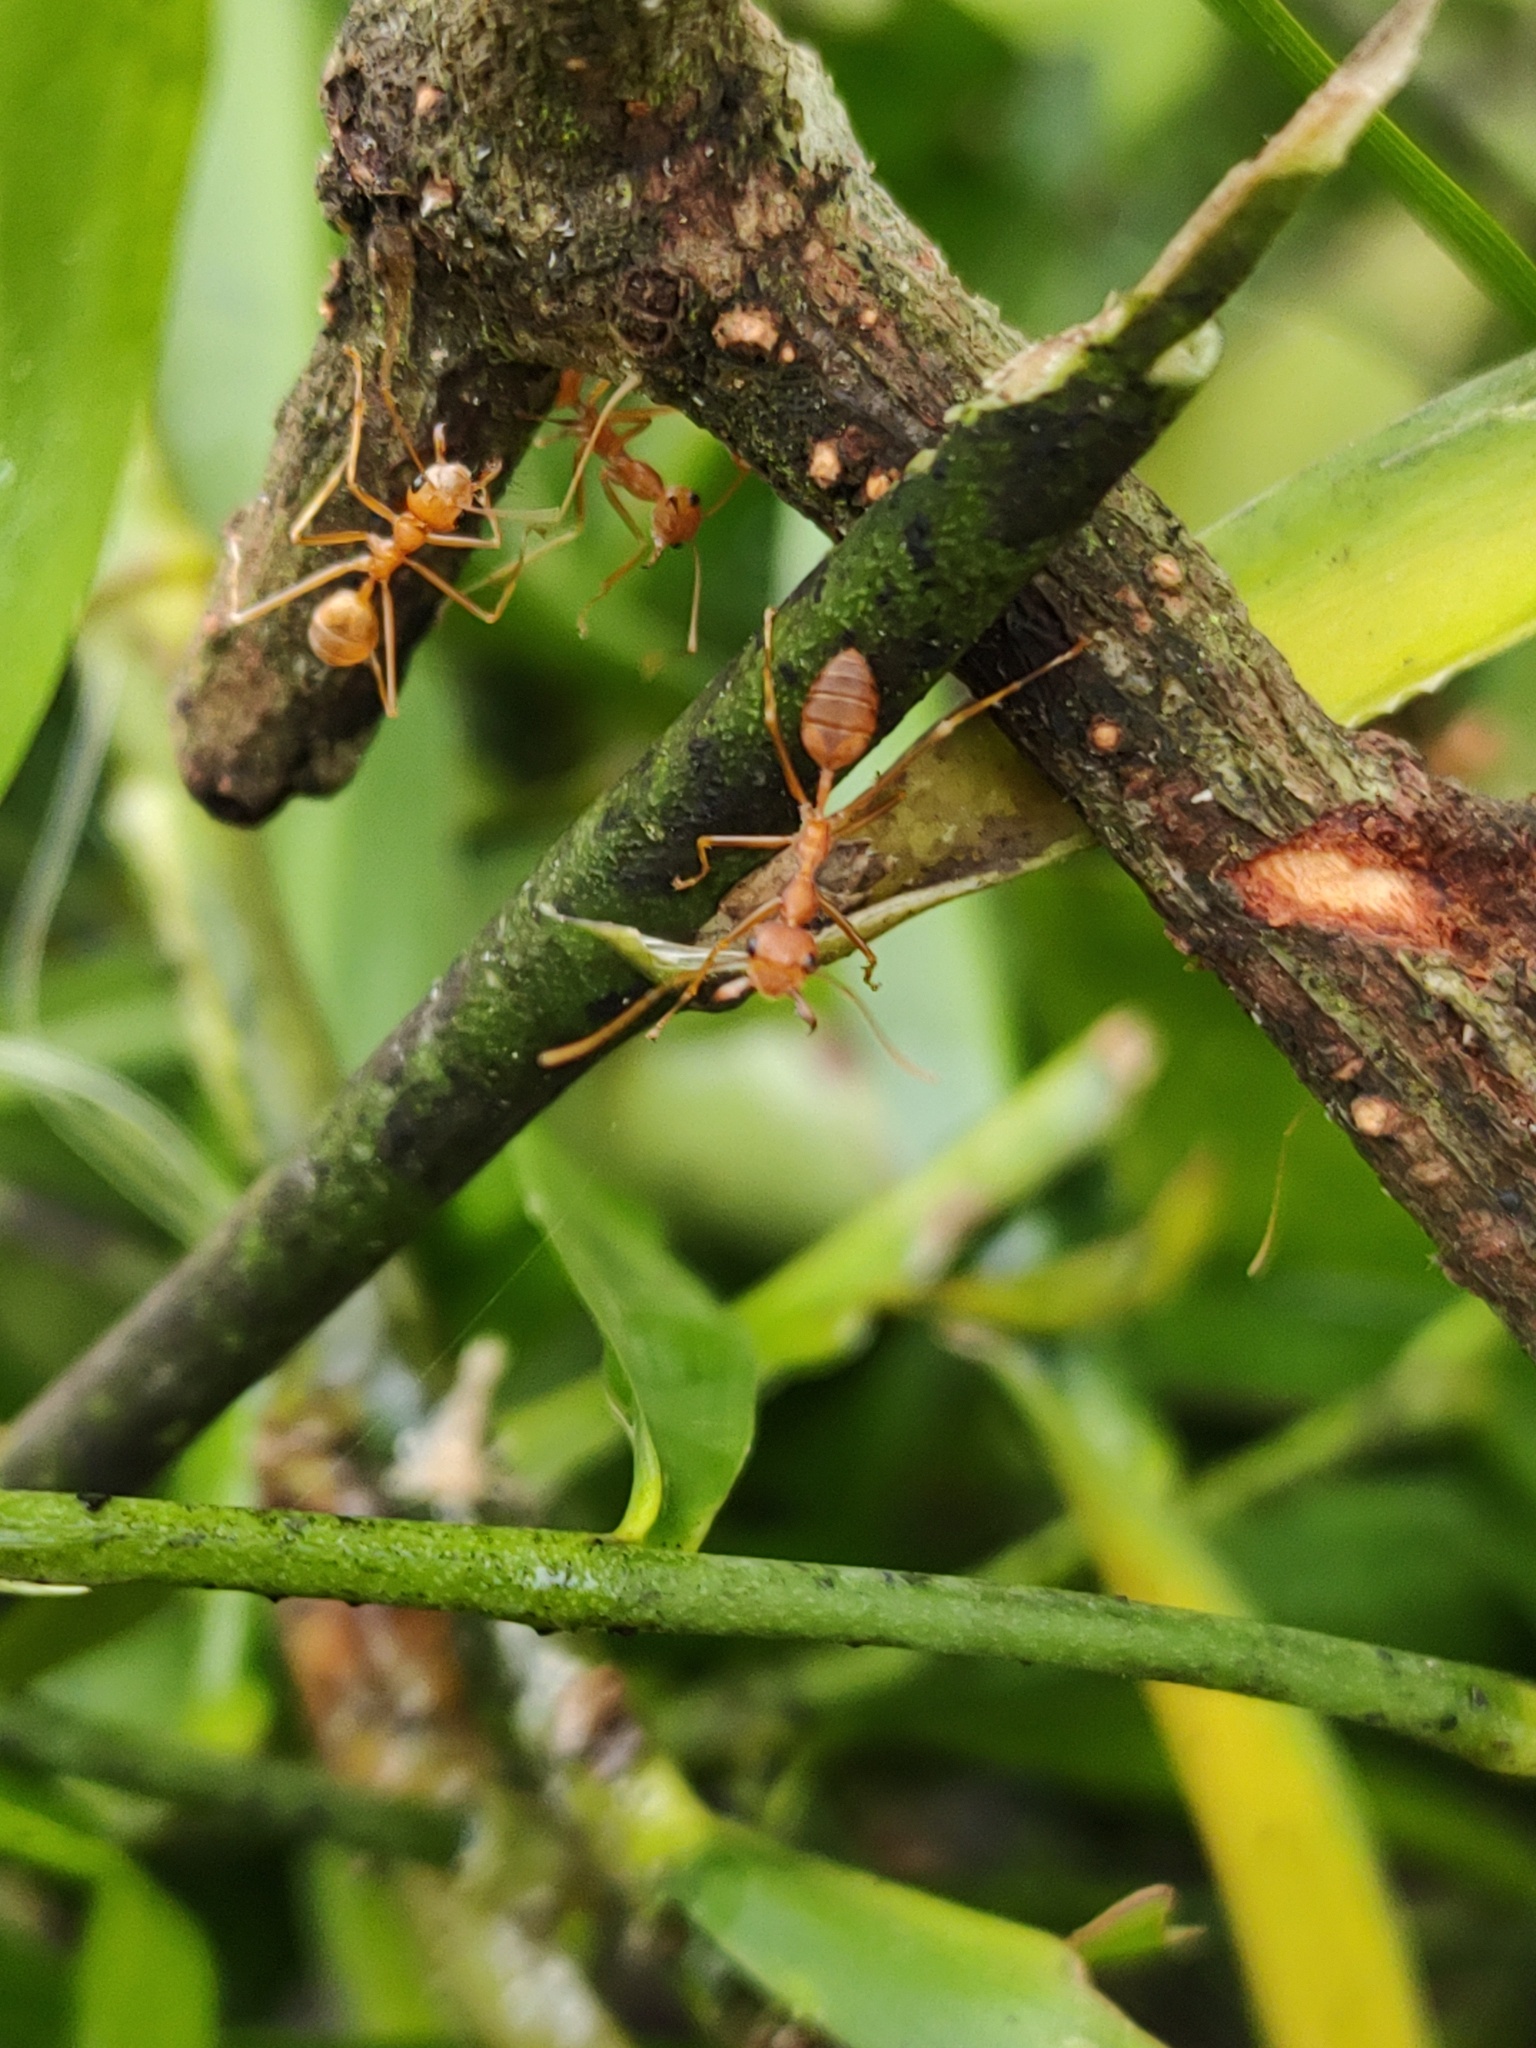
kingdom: Animalia
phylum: Arthropoda
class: Insecta
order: Hymenoptera
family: Formicidae
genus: Oecophylla
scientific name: Oecophylla smaragdina
